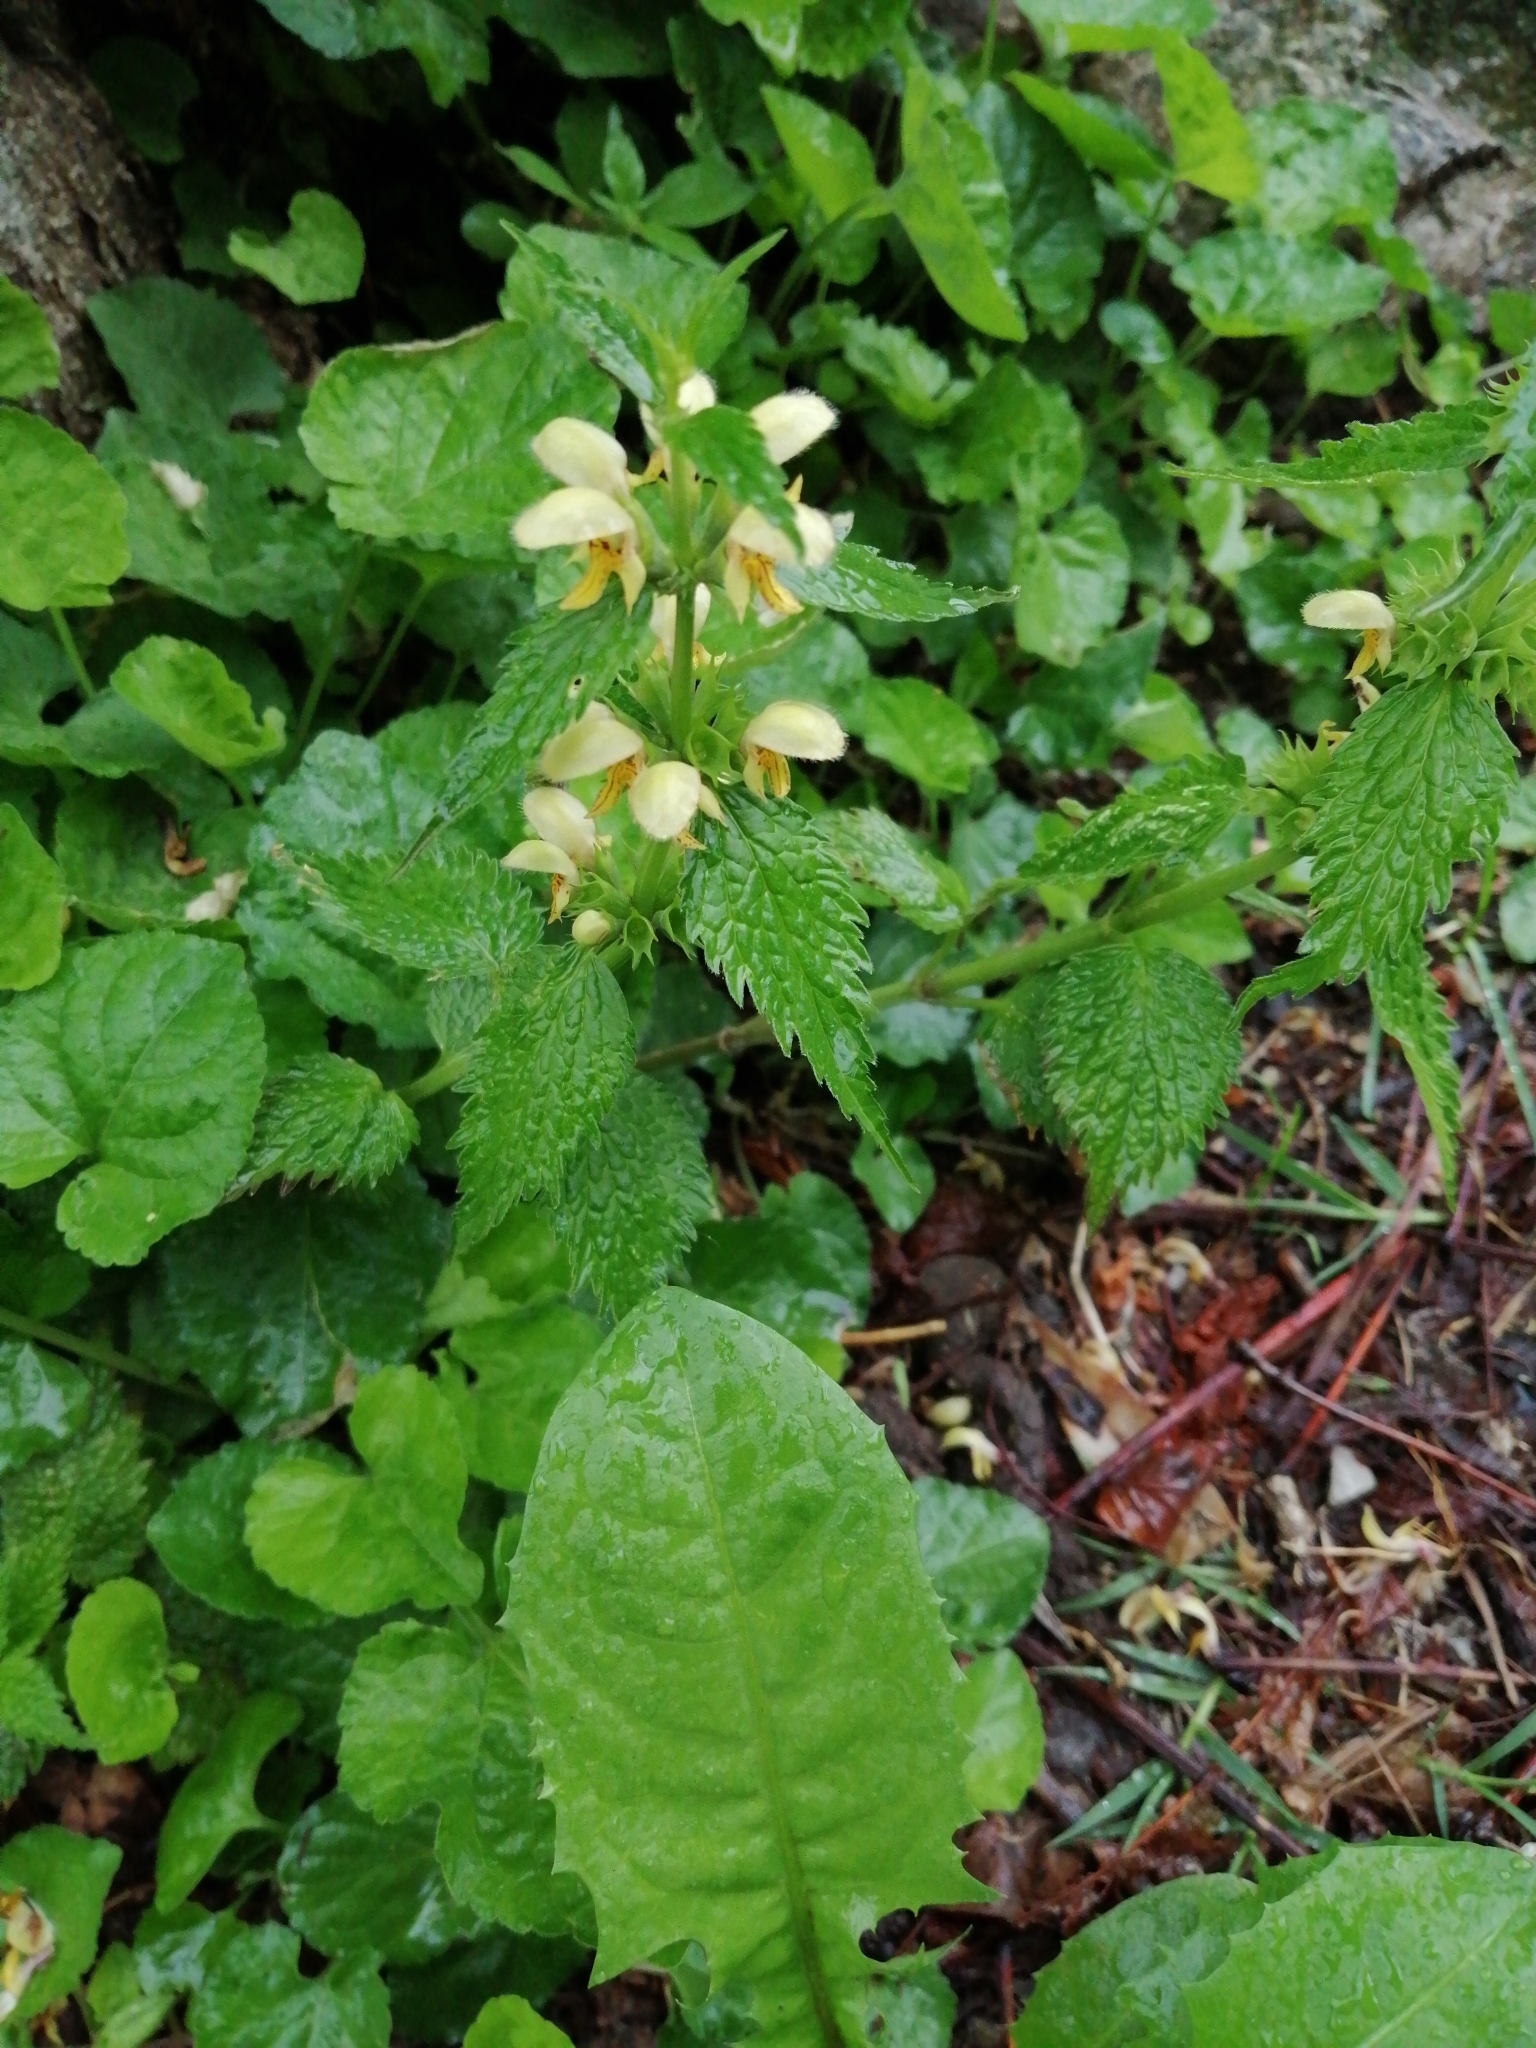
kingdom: Plantae
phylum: Tracheophyta
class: Magnoliopsida
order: Lamiales
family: Lamiaceae
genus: Lamium
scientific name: Lamium galeobdolon
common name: Yellow archangel
